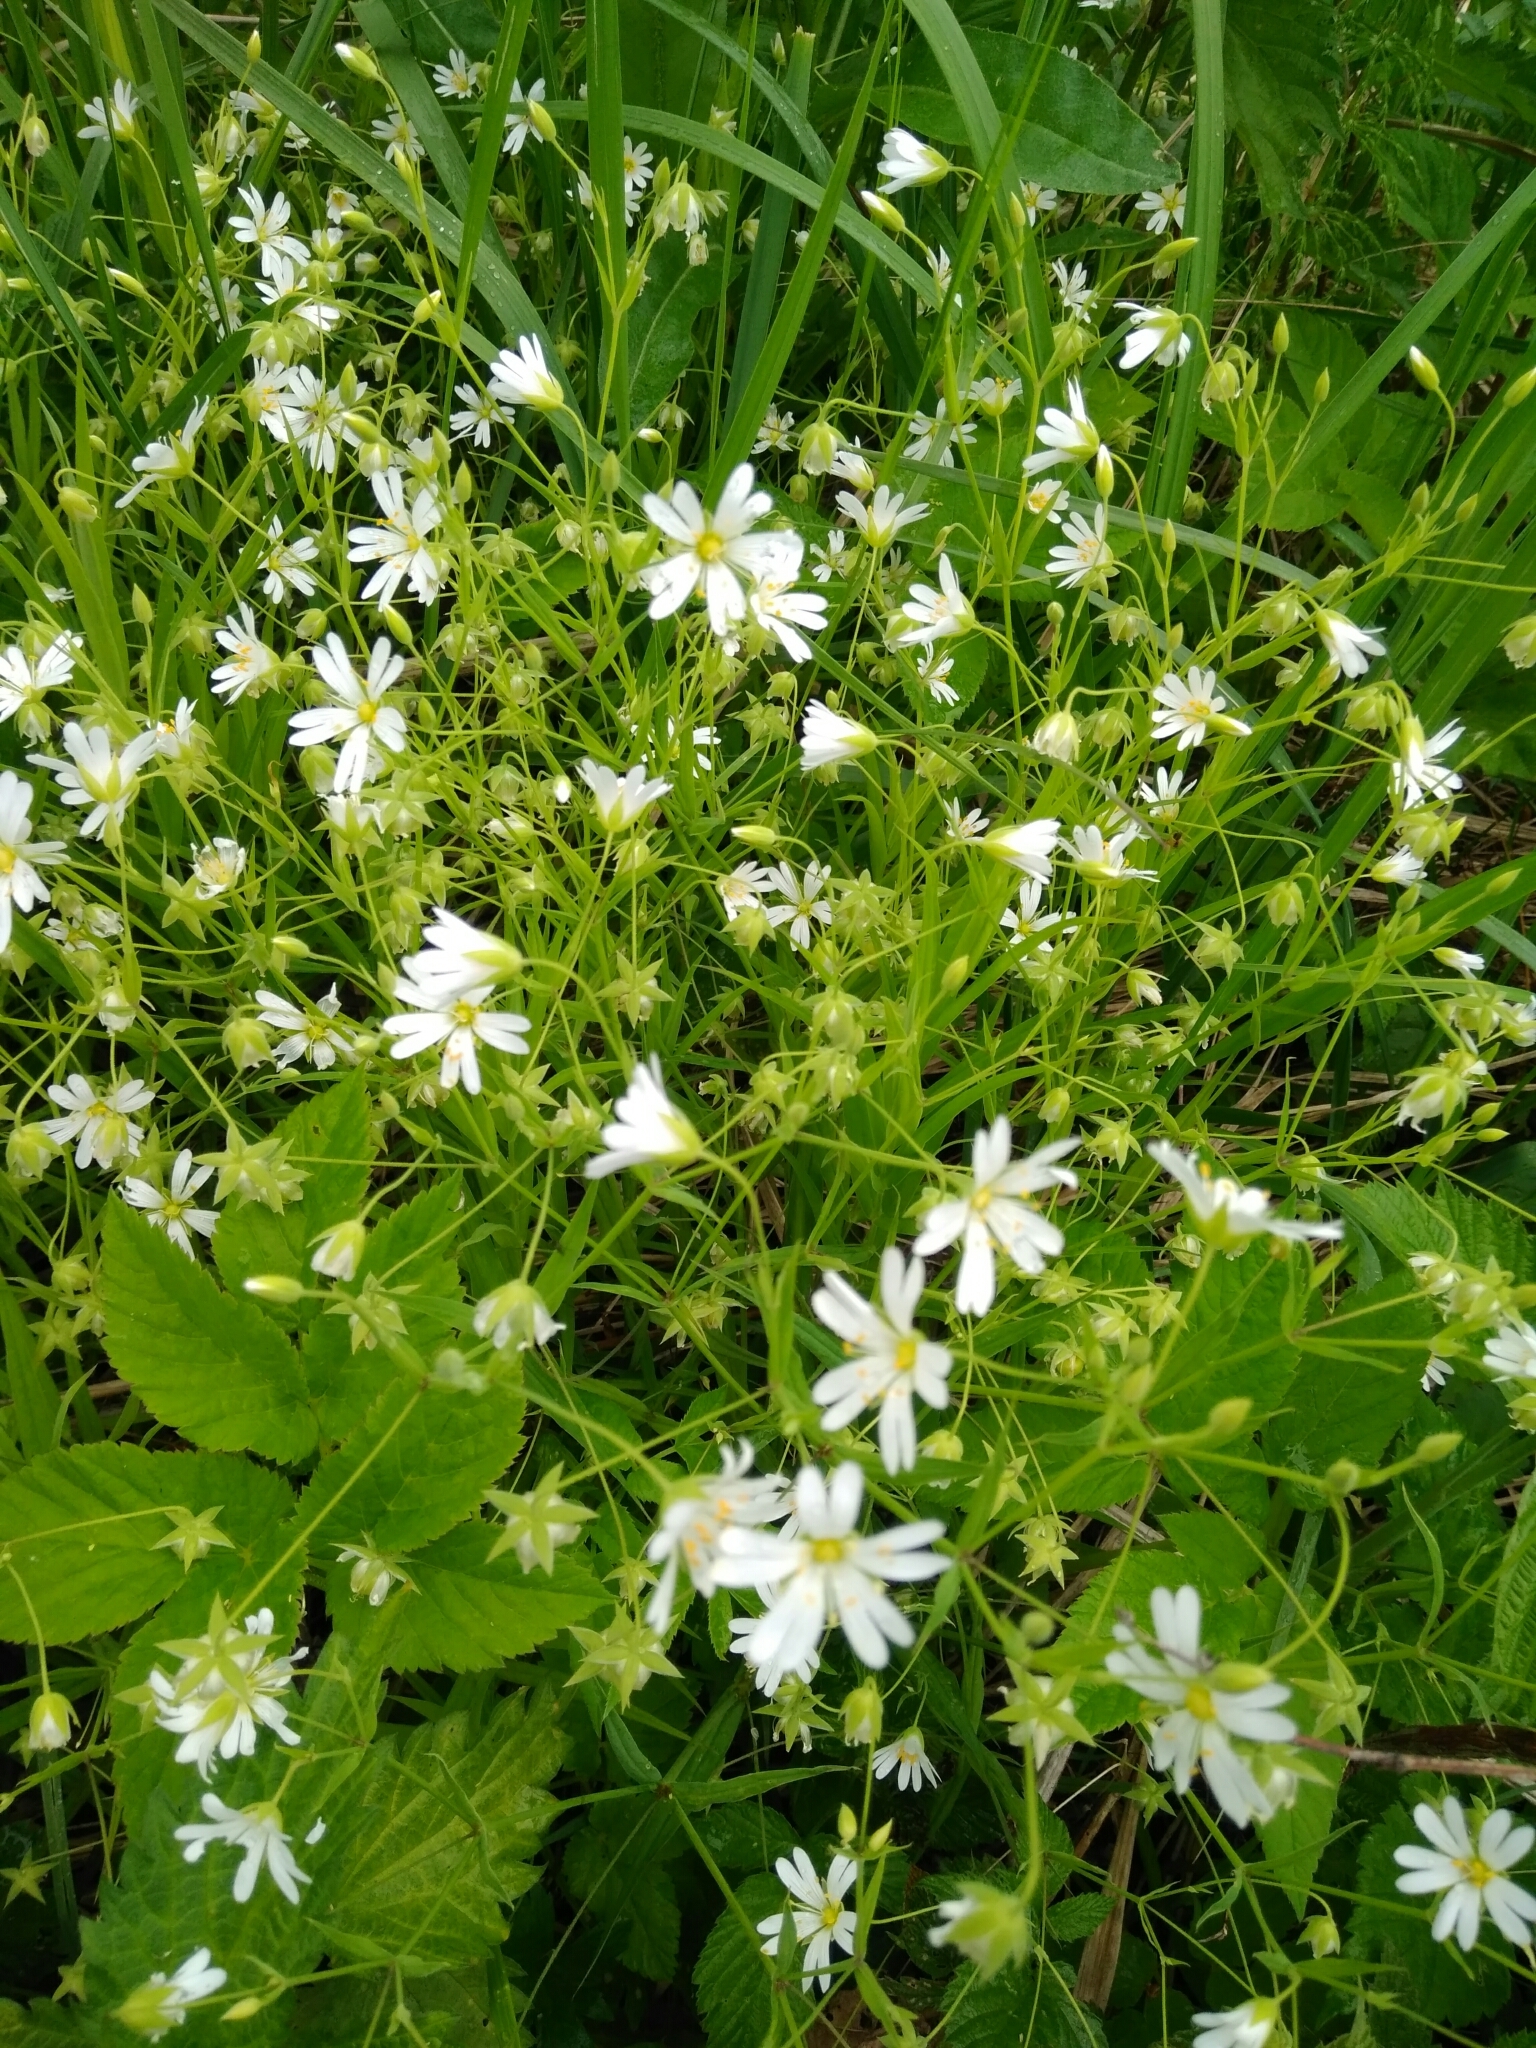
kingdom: Plantae
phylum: Tracheophyta
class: Magnoliopsida
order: Caryophyllales
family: Caryophyllaceae
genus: Rabelera
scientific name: Rabelera holostea
